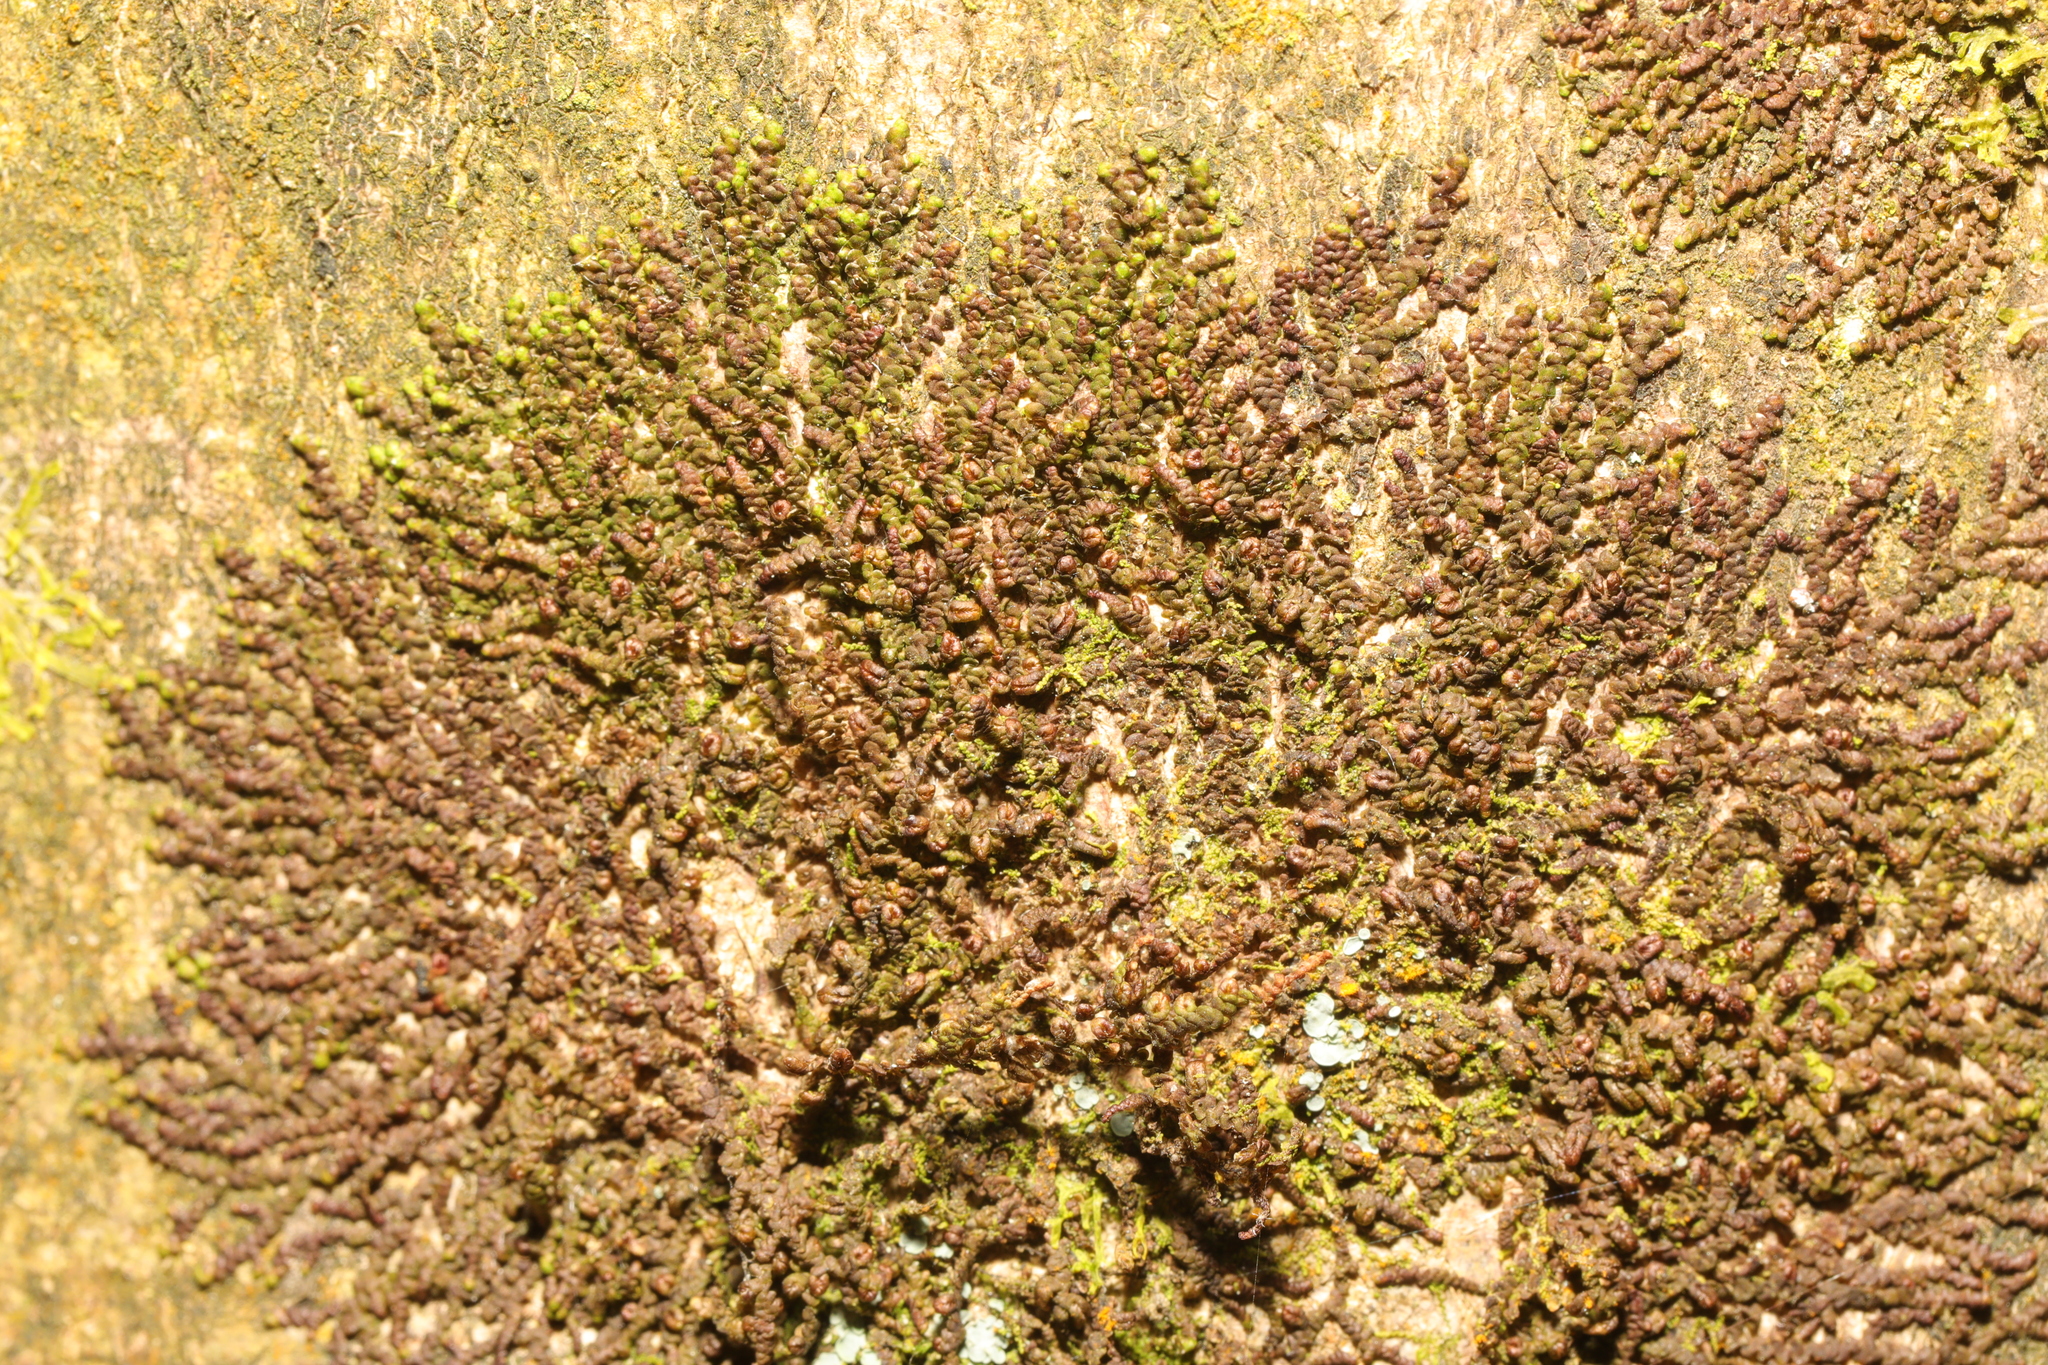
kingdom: Plantae
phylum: Marchantiophyta
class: Jungermanniopsida
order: Porellales
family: Frullaniaceae
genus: Frullania
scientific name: Frullania dilatata
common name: Dilated scalewort
